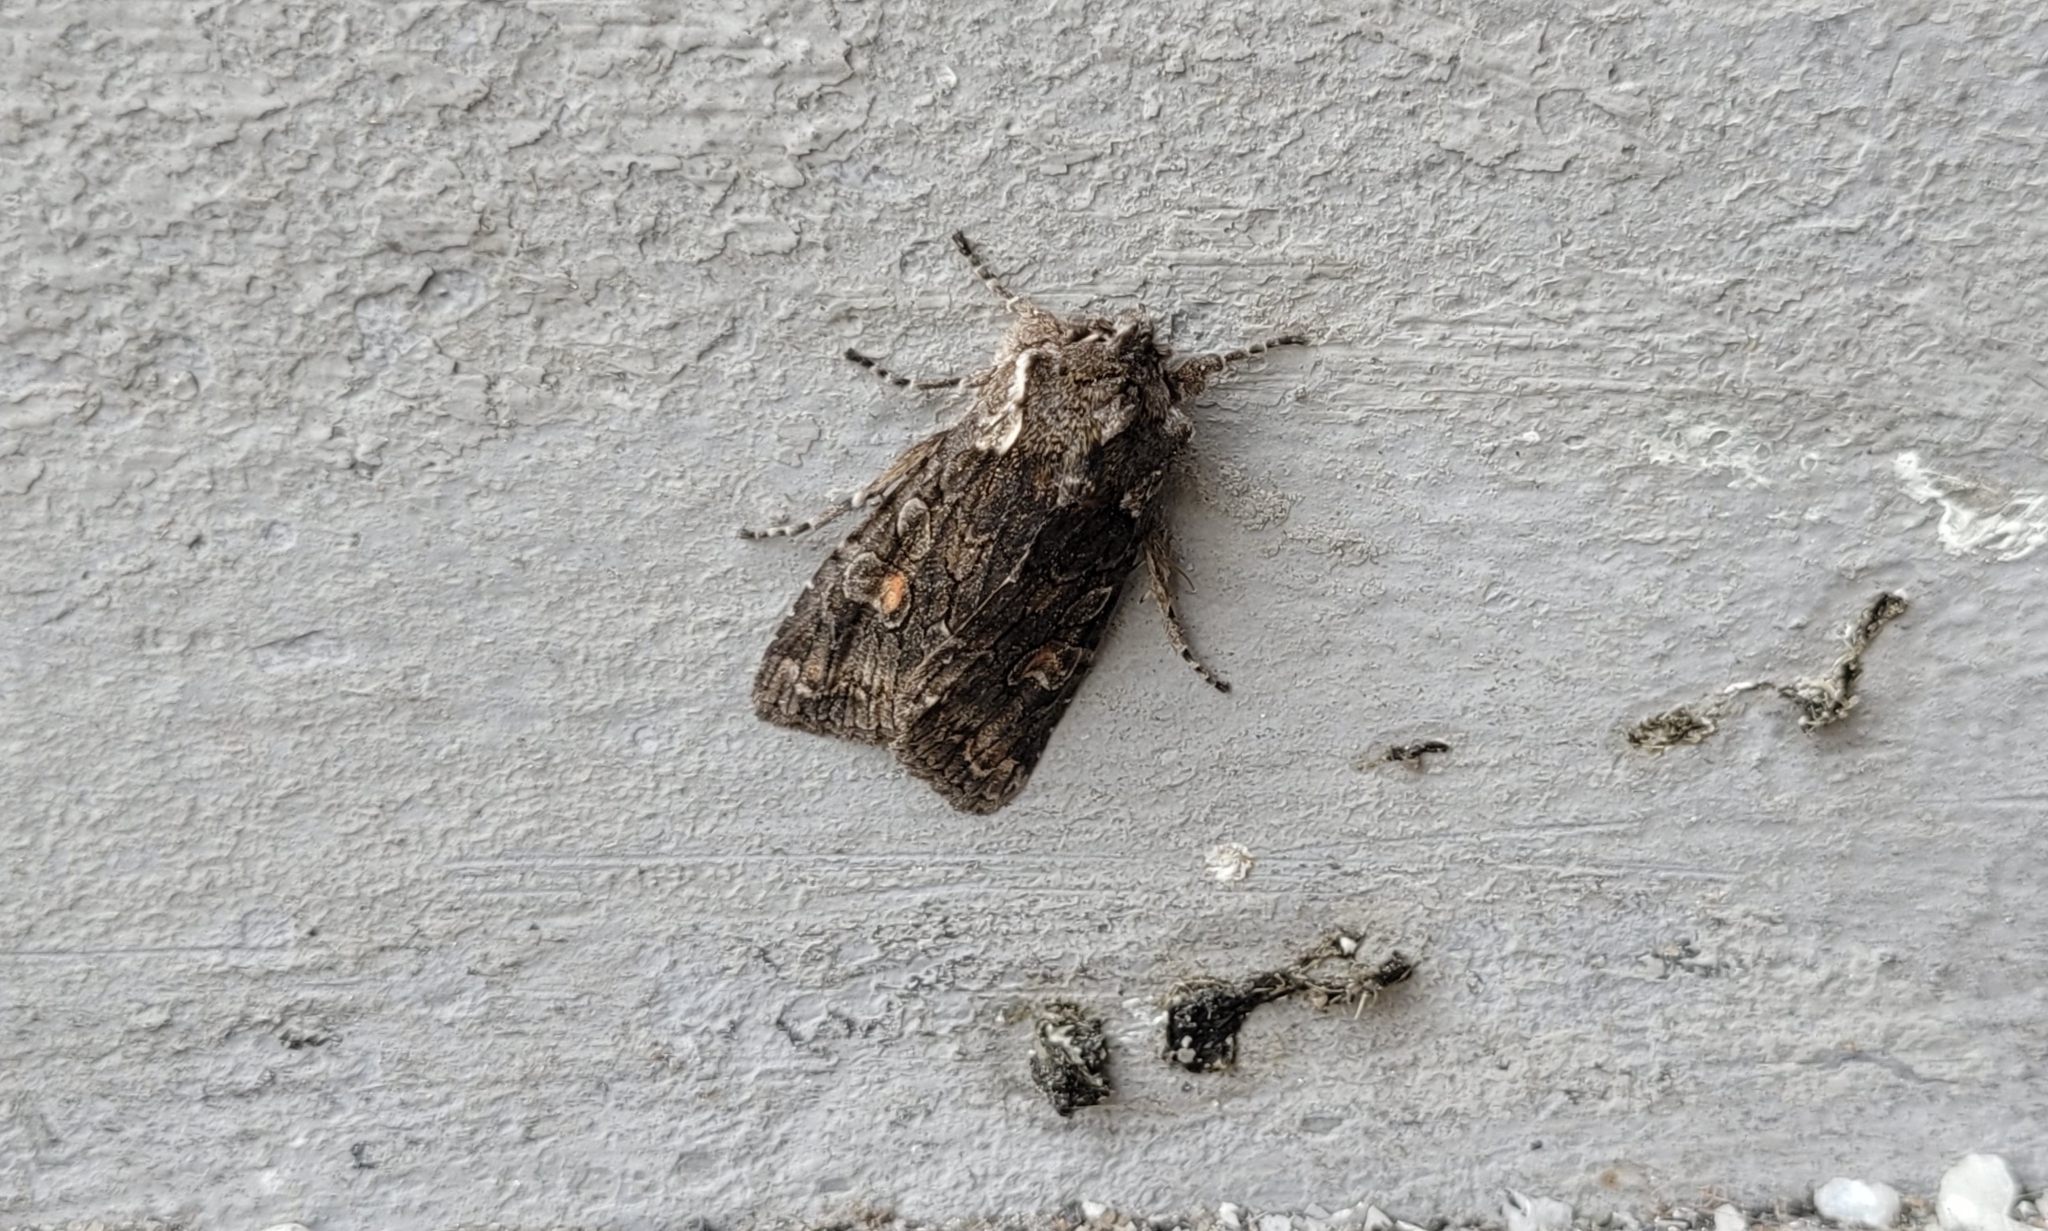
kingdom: Animalia
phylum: Arthropoda
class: Insecta
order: Lepidoptera
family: Noctuidae
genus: Lithophane
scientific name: Lithophane consocia
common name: Softly's shoulder-knot
